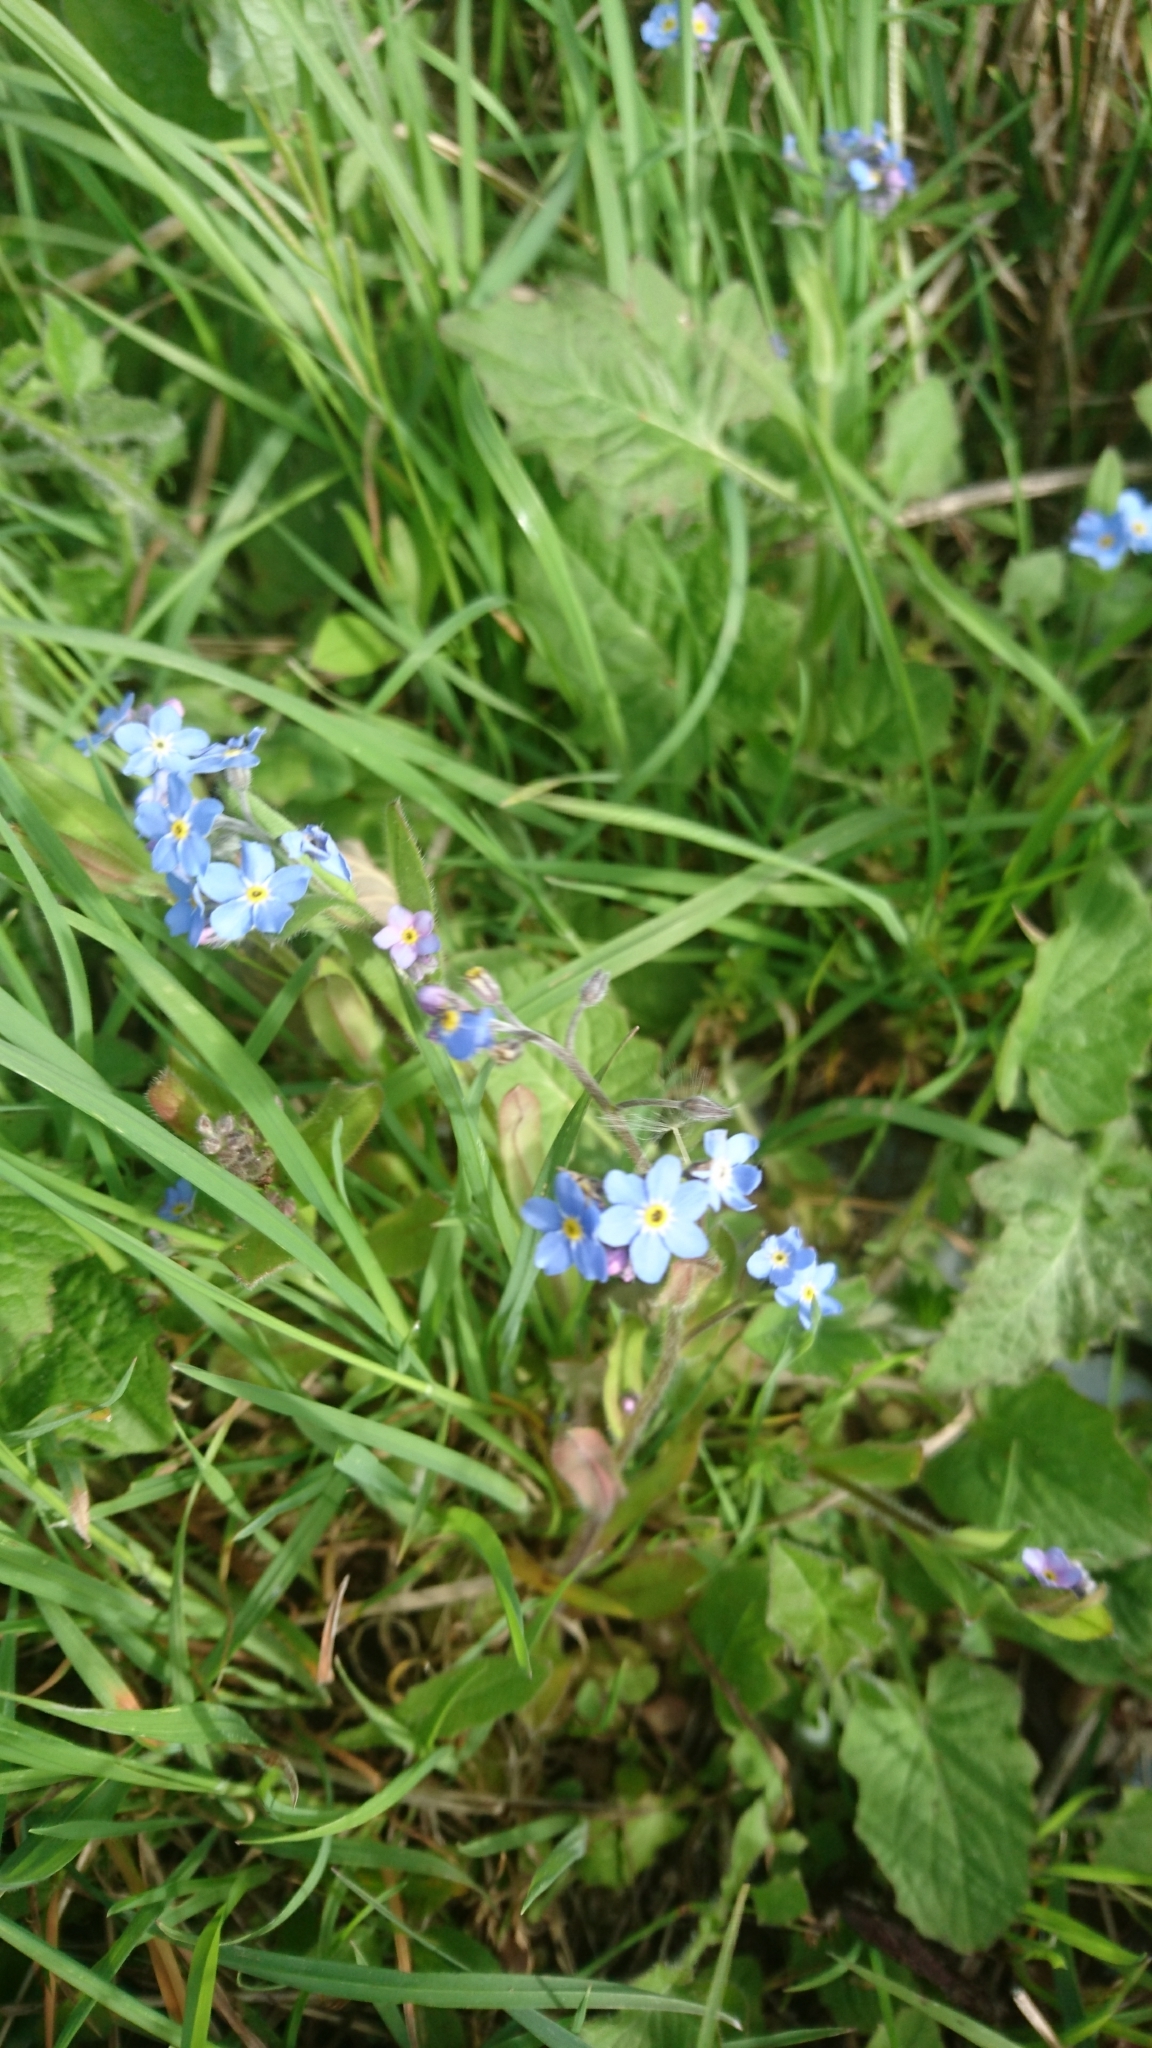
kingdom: Plantae
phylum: Tracheophyta
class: Magnoliopsida
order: Boraginales
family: Boraginaceae
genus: Myosotis
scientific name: Myosotis sylvatica
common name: Wood forget-me-not
